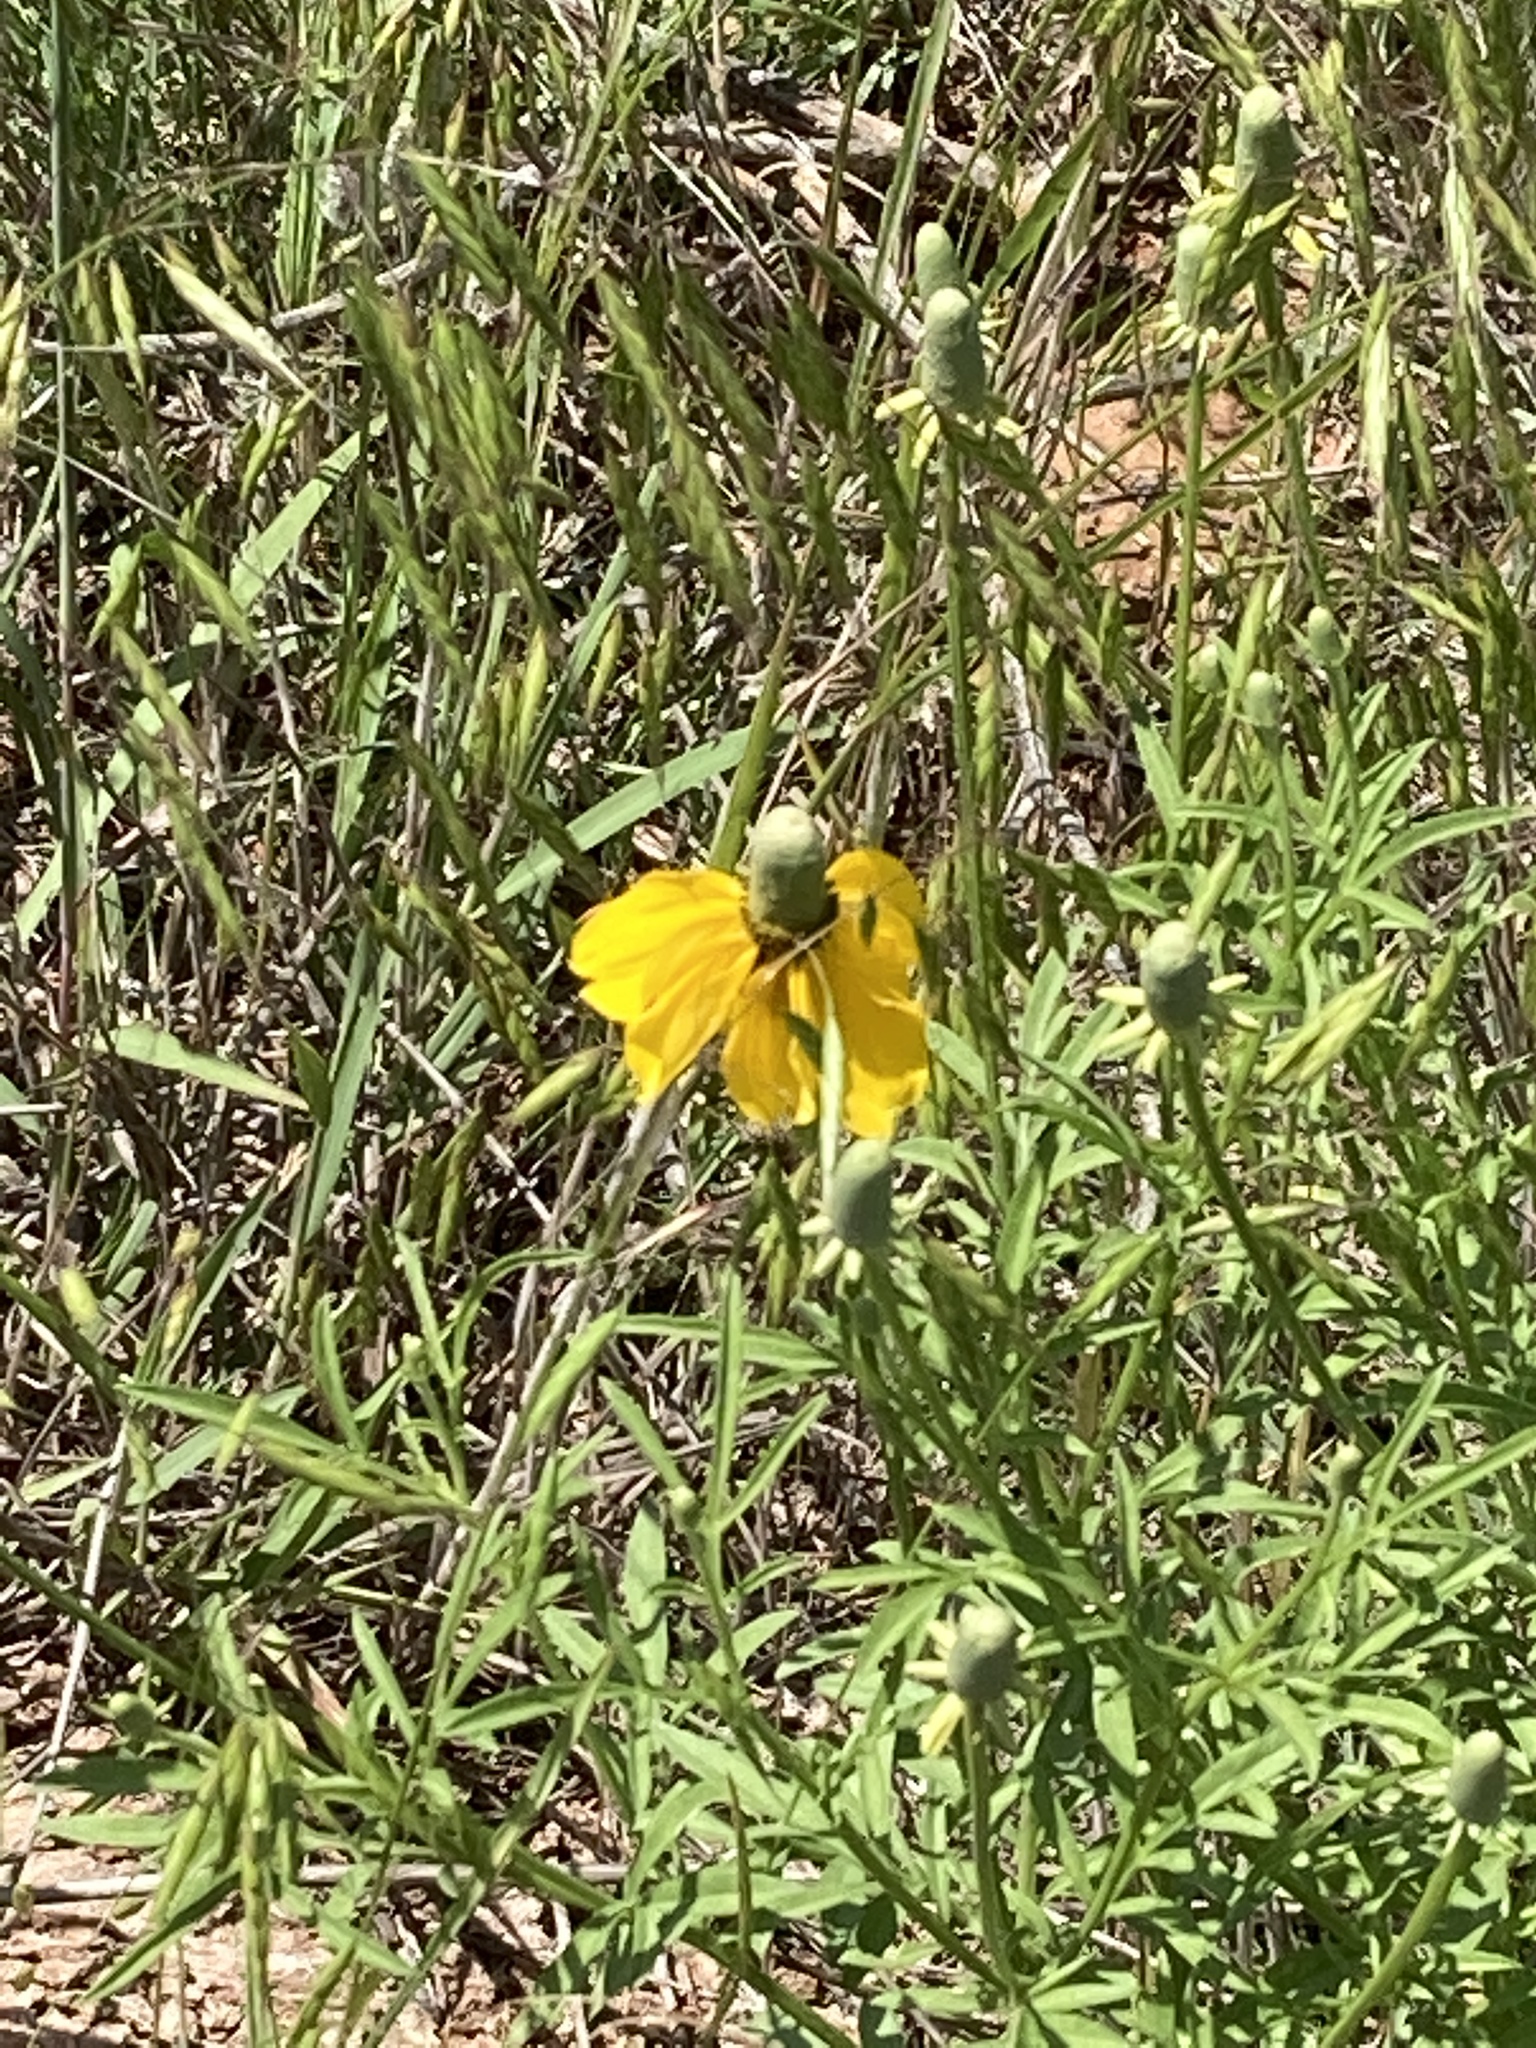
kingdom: Plantae
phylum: Tracheophyta
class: Magnoliopsida
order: Asterales
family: Asteraceae
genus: Ratibida
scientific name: Ratibida columnifera
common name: Prairie coneflower
